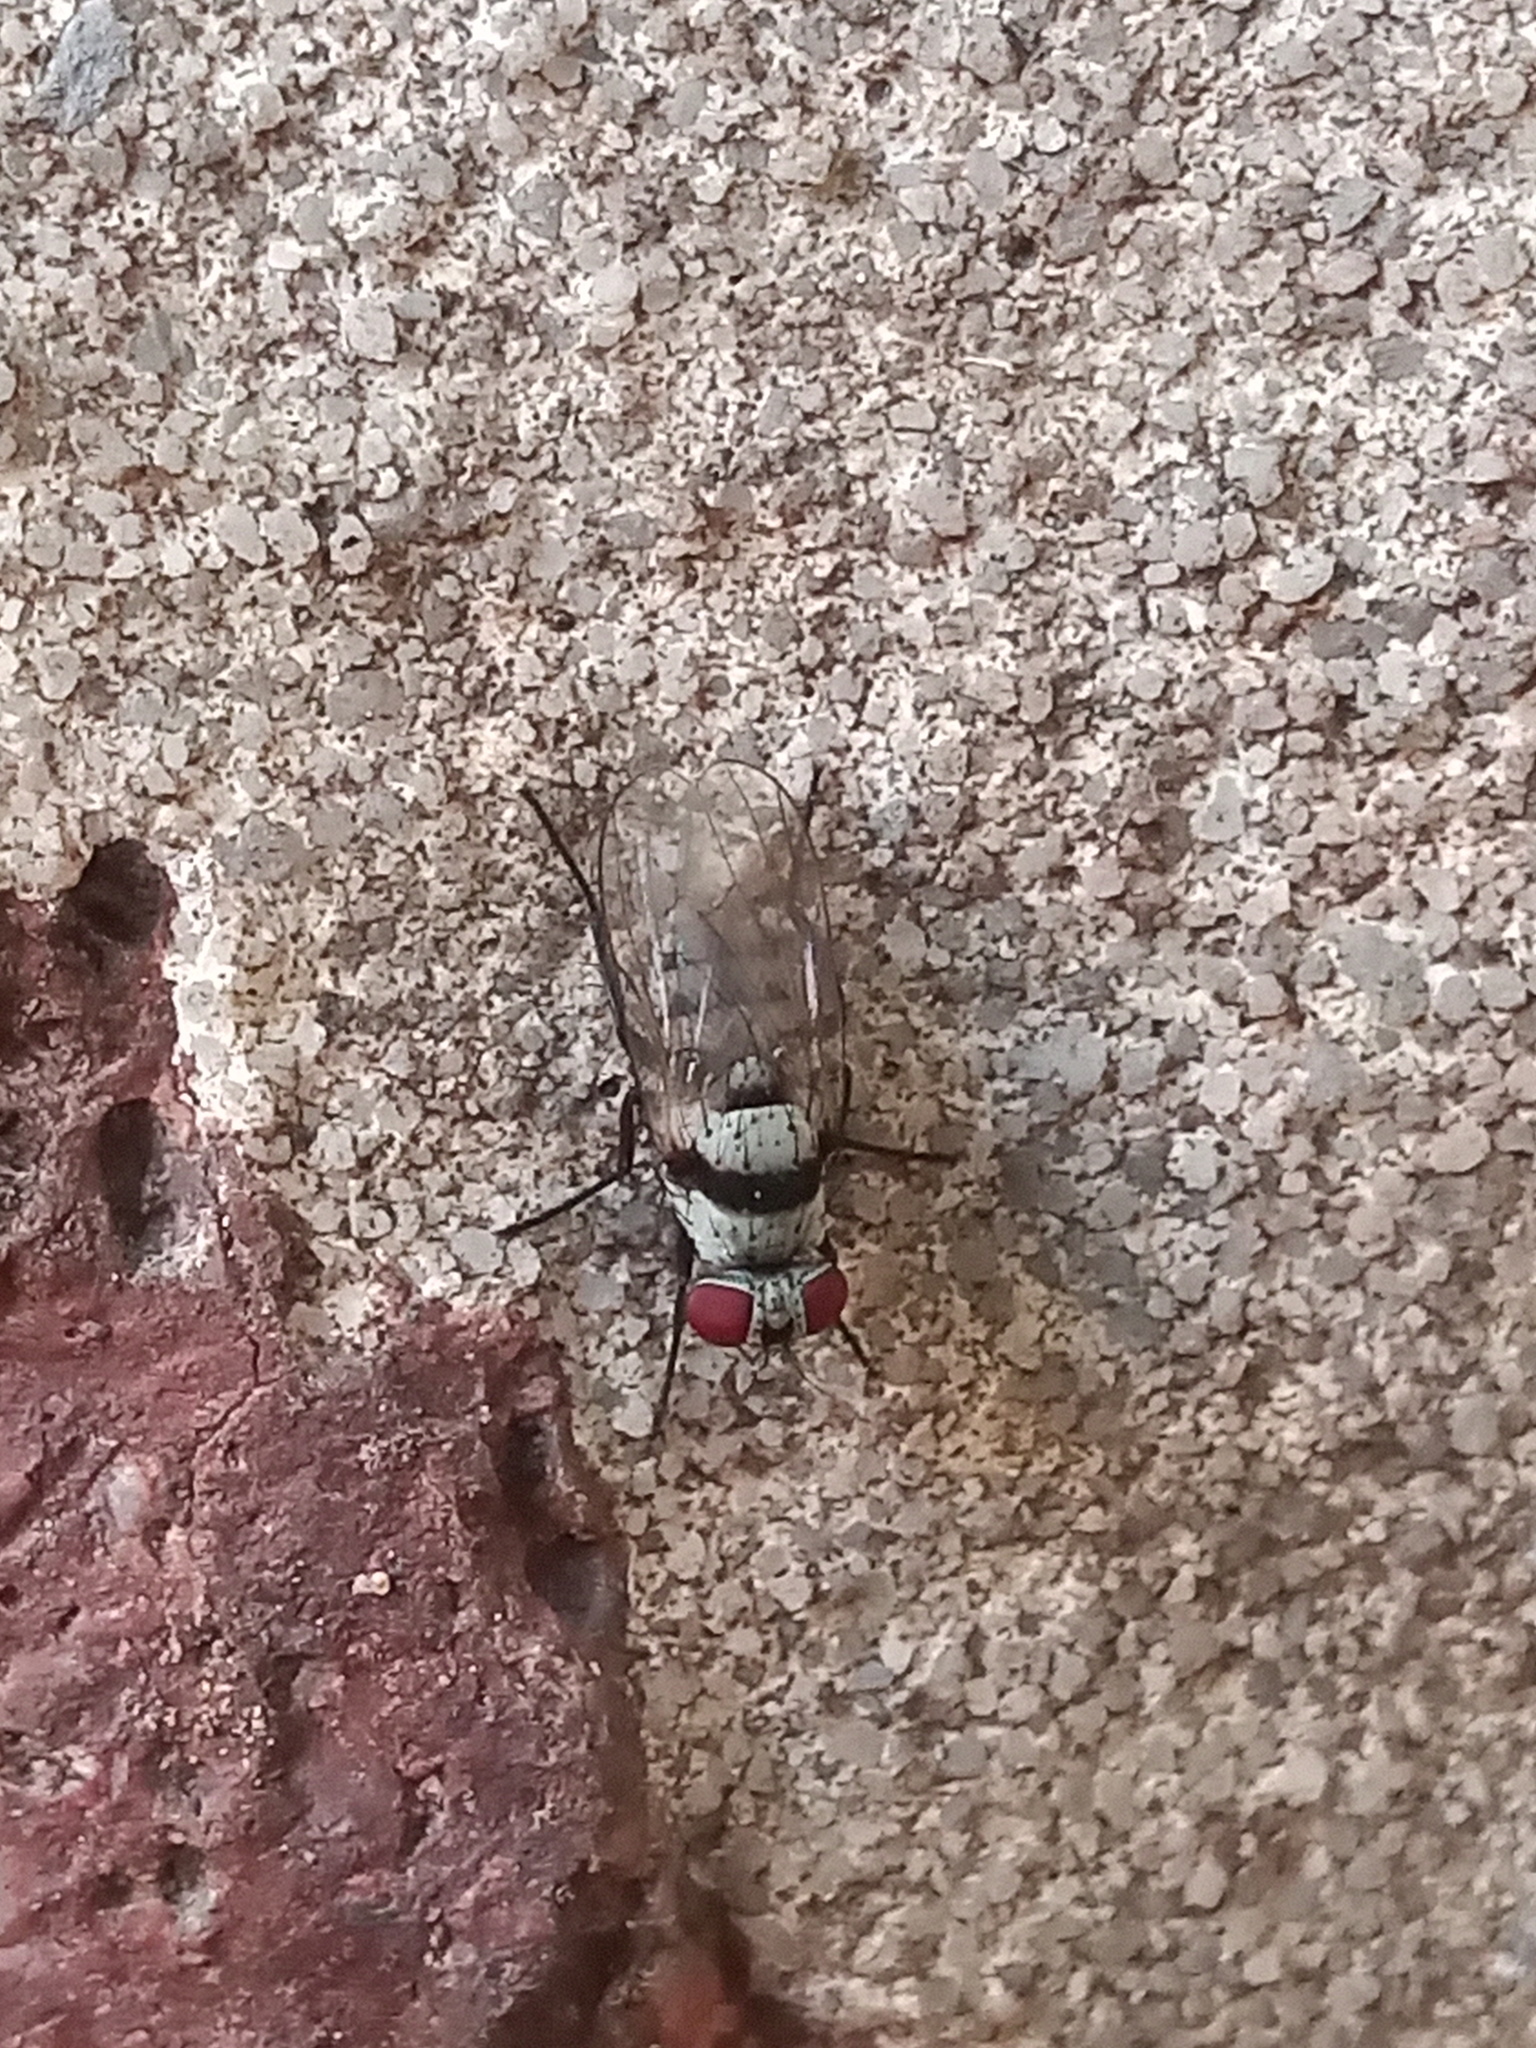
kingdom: Animalia
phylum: Arthropoda
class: Insecta
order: Diptera
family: Anthomyiidae
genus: Anthomyia
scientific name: Anthomyia illocata
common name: Fly
